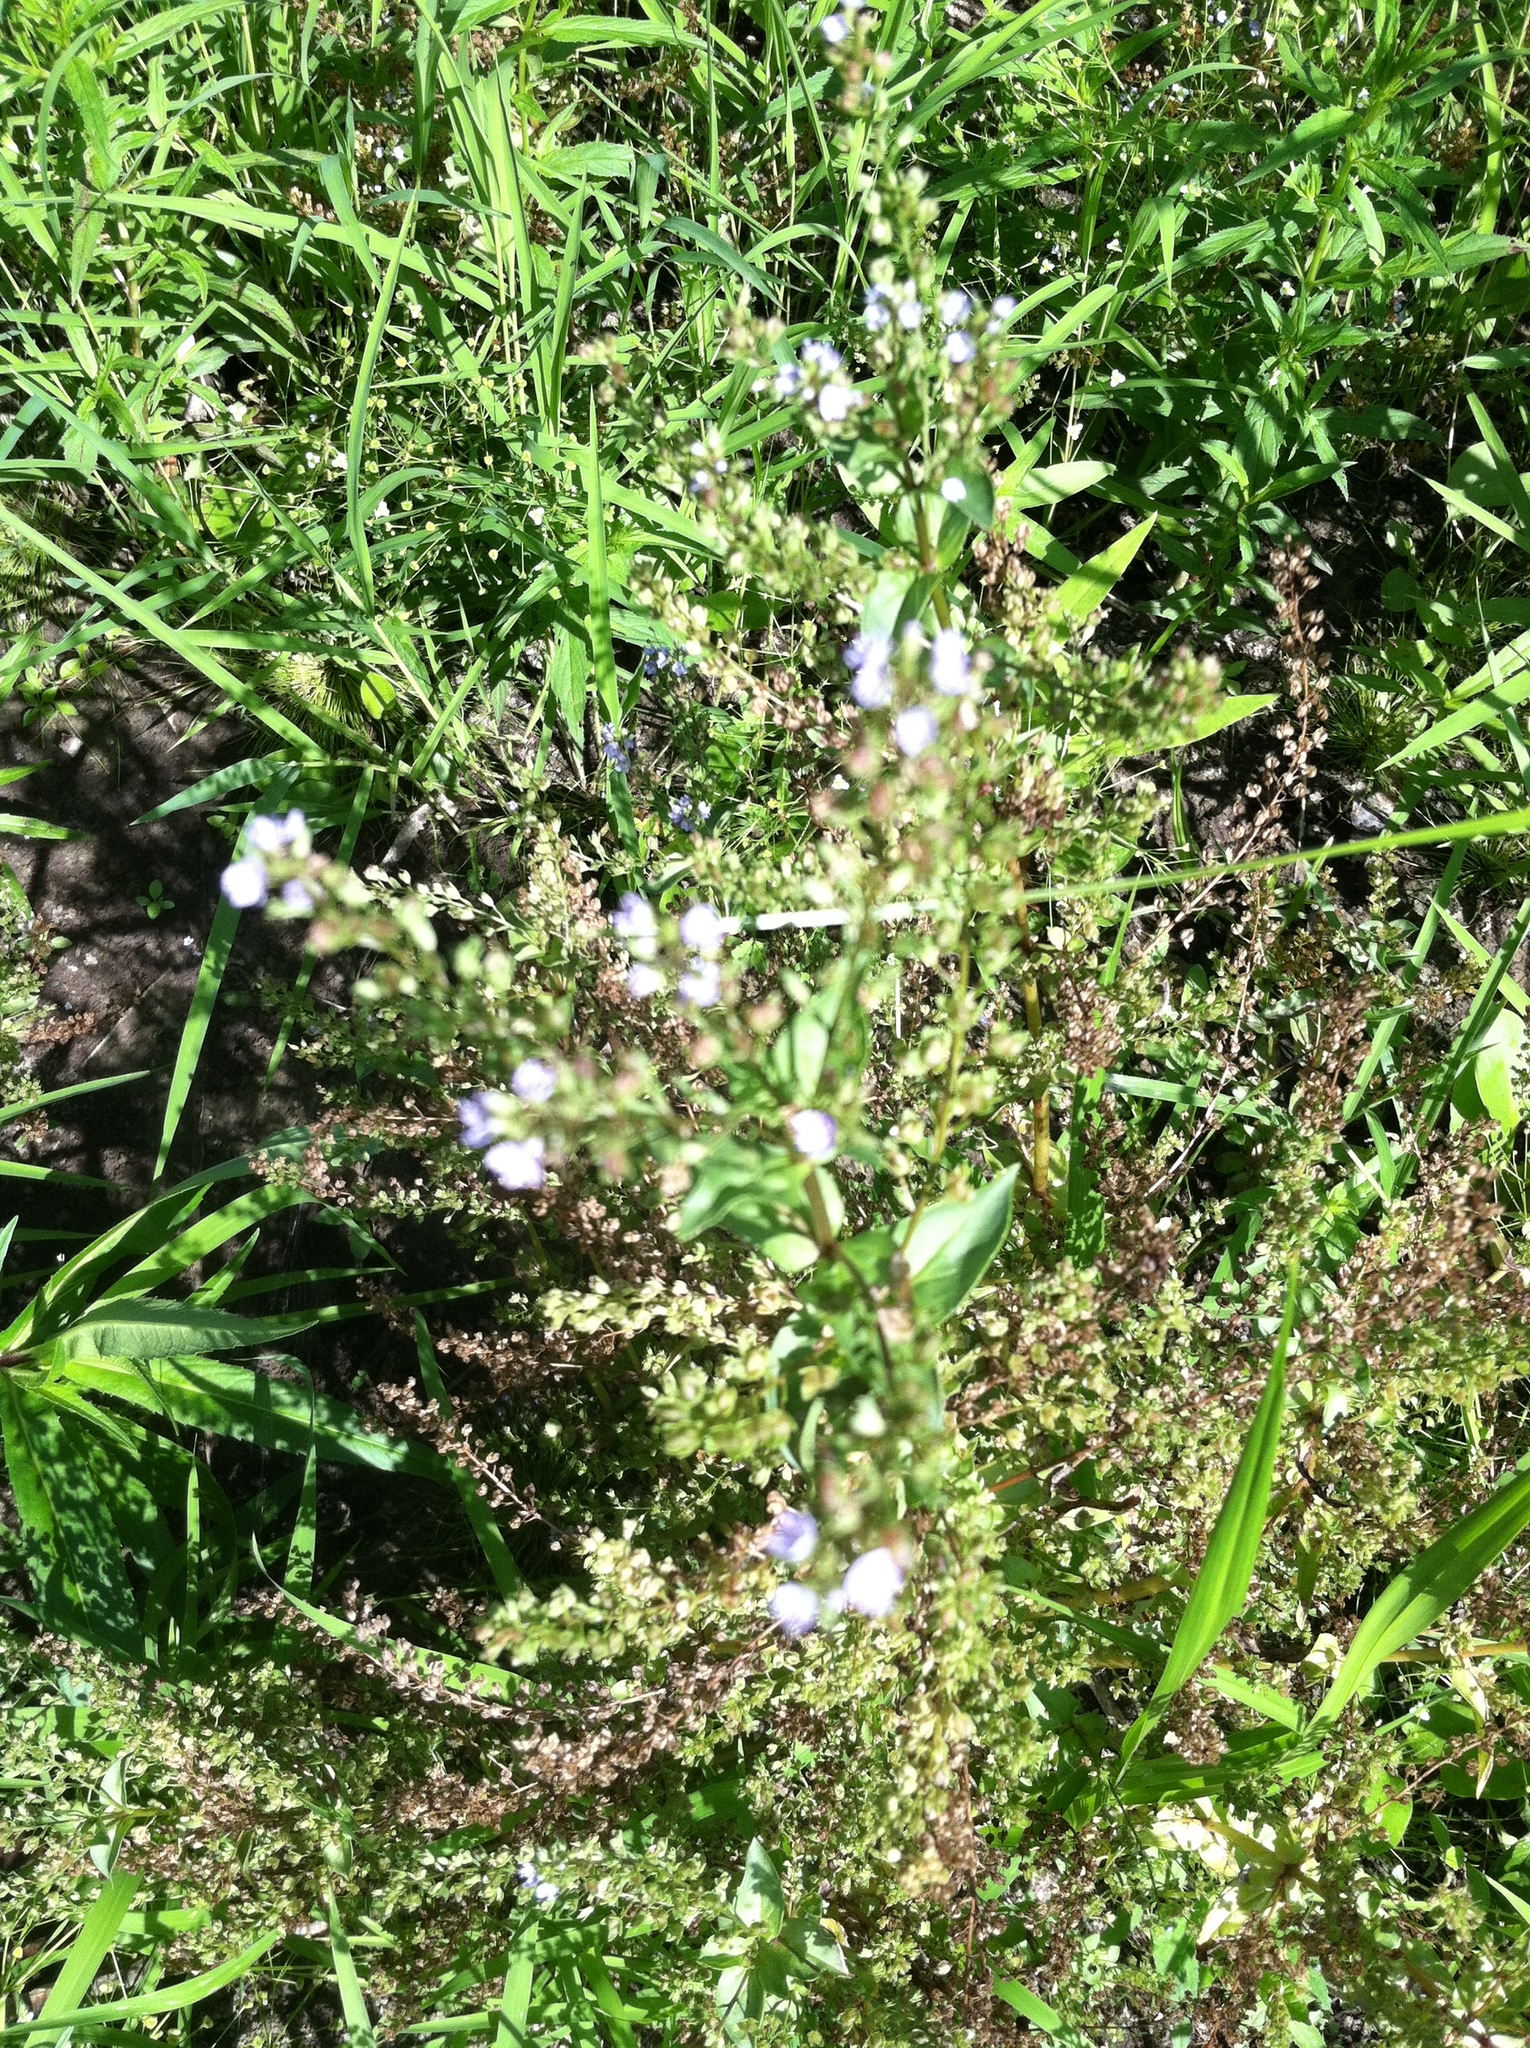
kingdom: Plantae
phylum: Tracheophyta
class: Magnoliopsida
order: Lamiales
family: Plantaginaceae
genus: Veronica
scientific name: Veronica anagallis-aquatica
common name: Water speedwell
